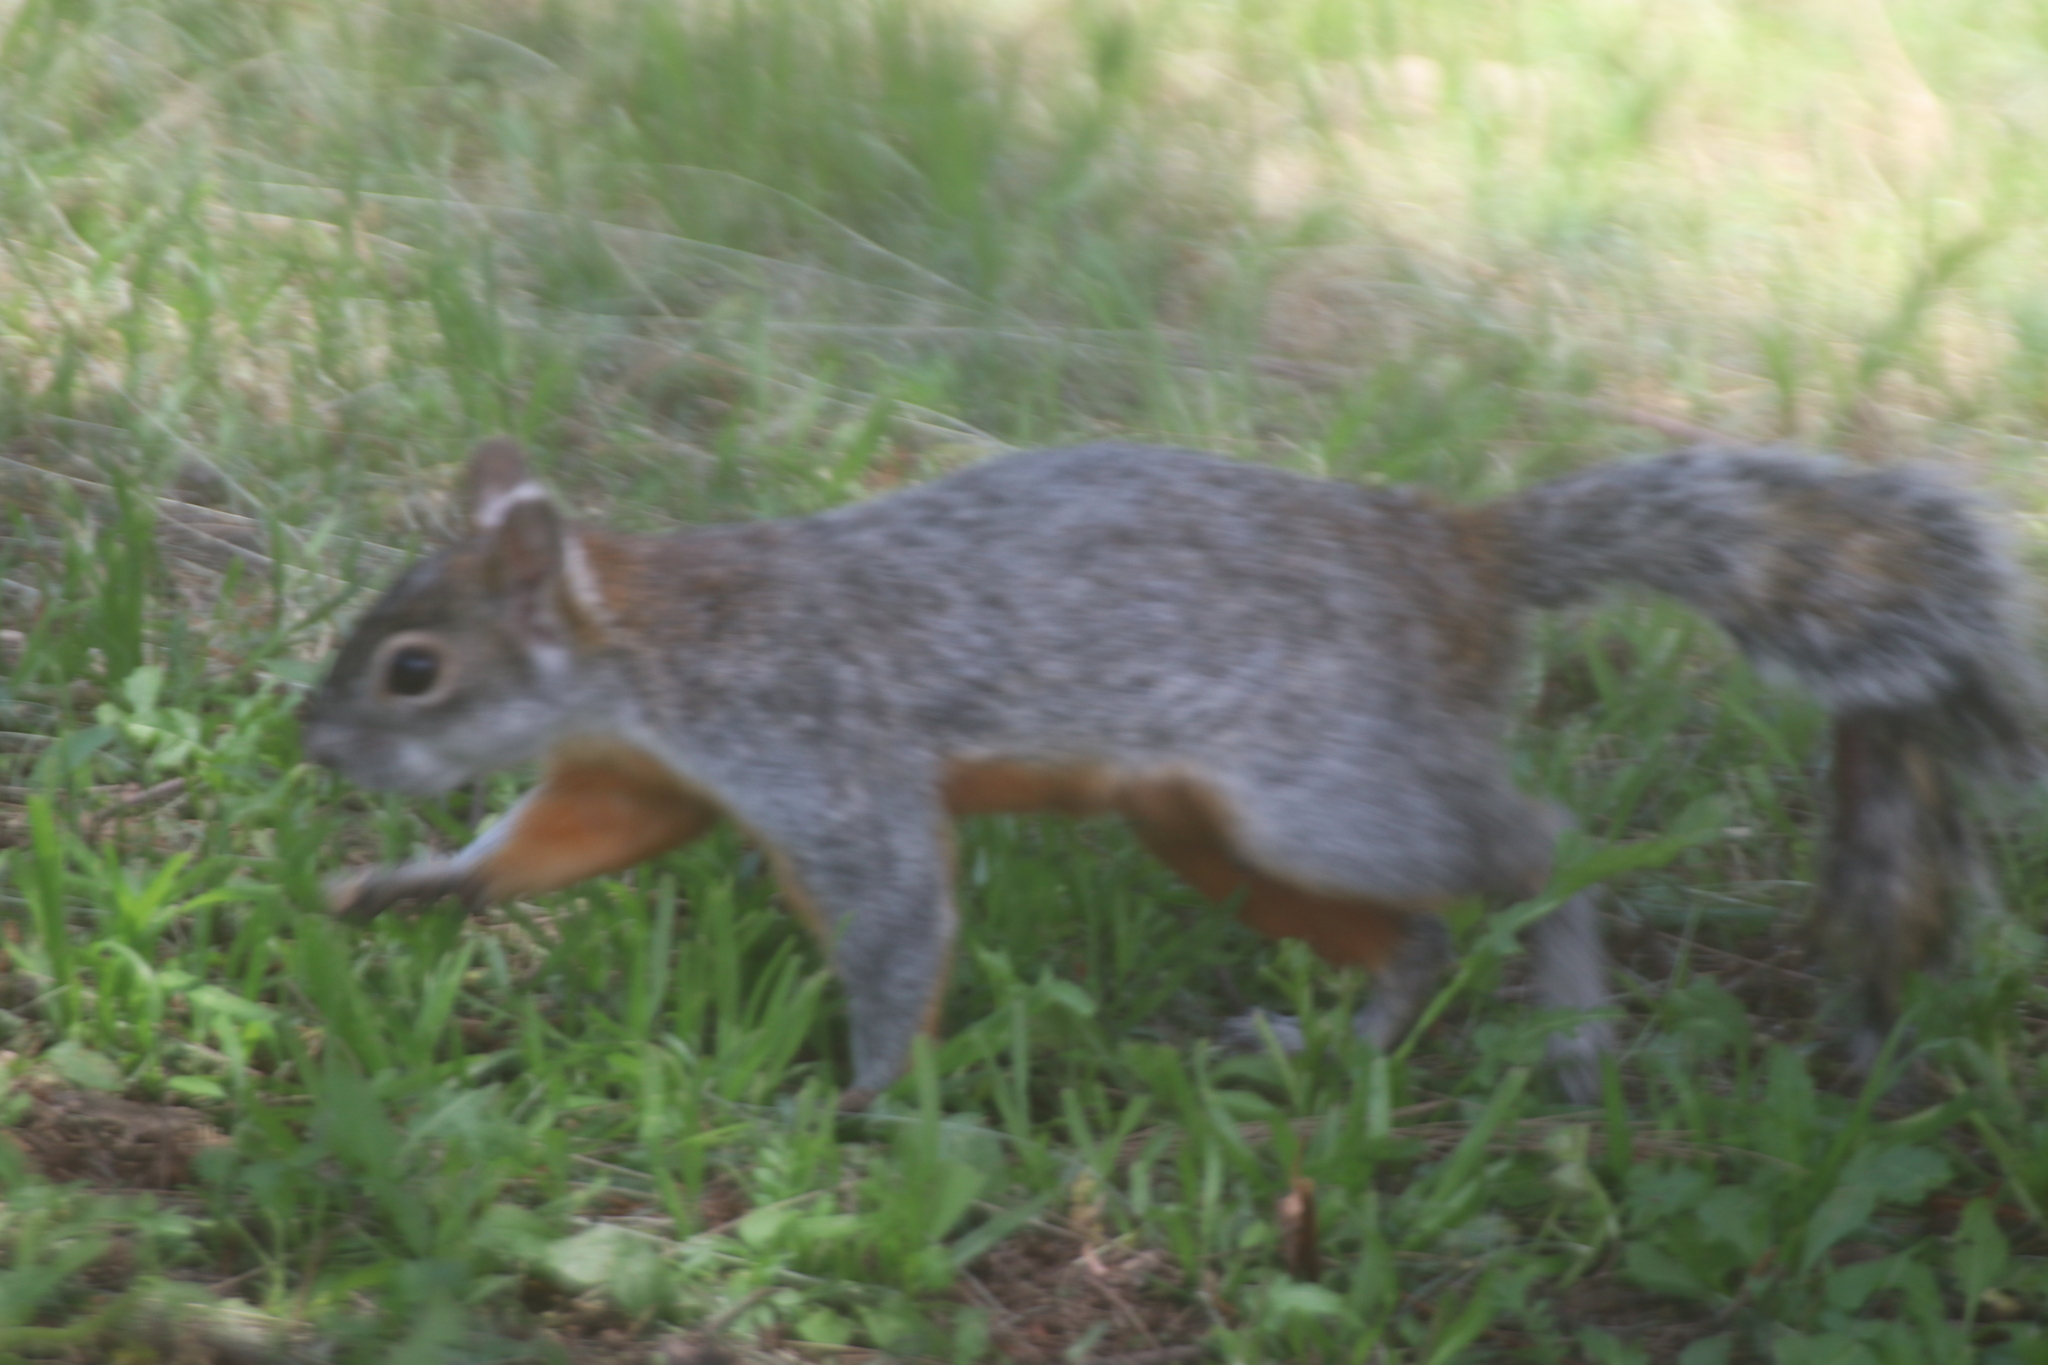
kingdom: Animalia
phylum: Chordata
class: Mammalia
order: Rodentia
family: Sciuridae
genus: Sciurus
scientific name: Sciurus aureogaster
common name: Red-bellied squirrel
